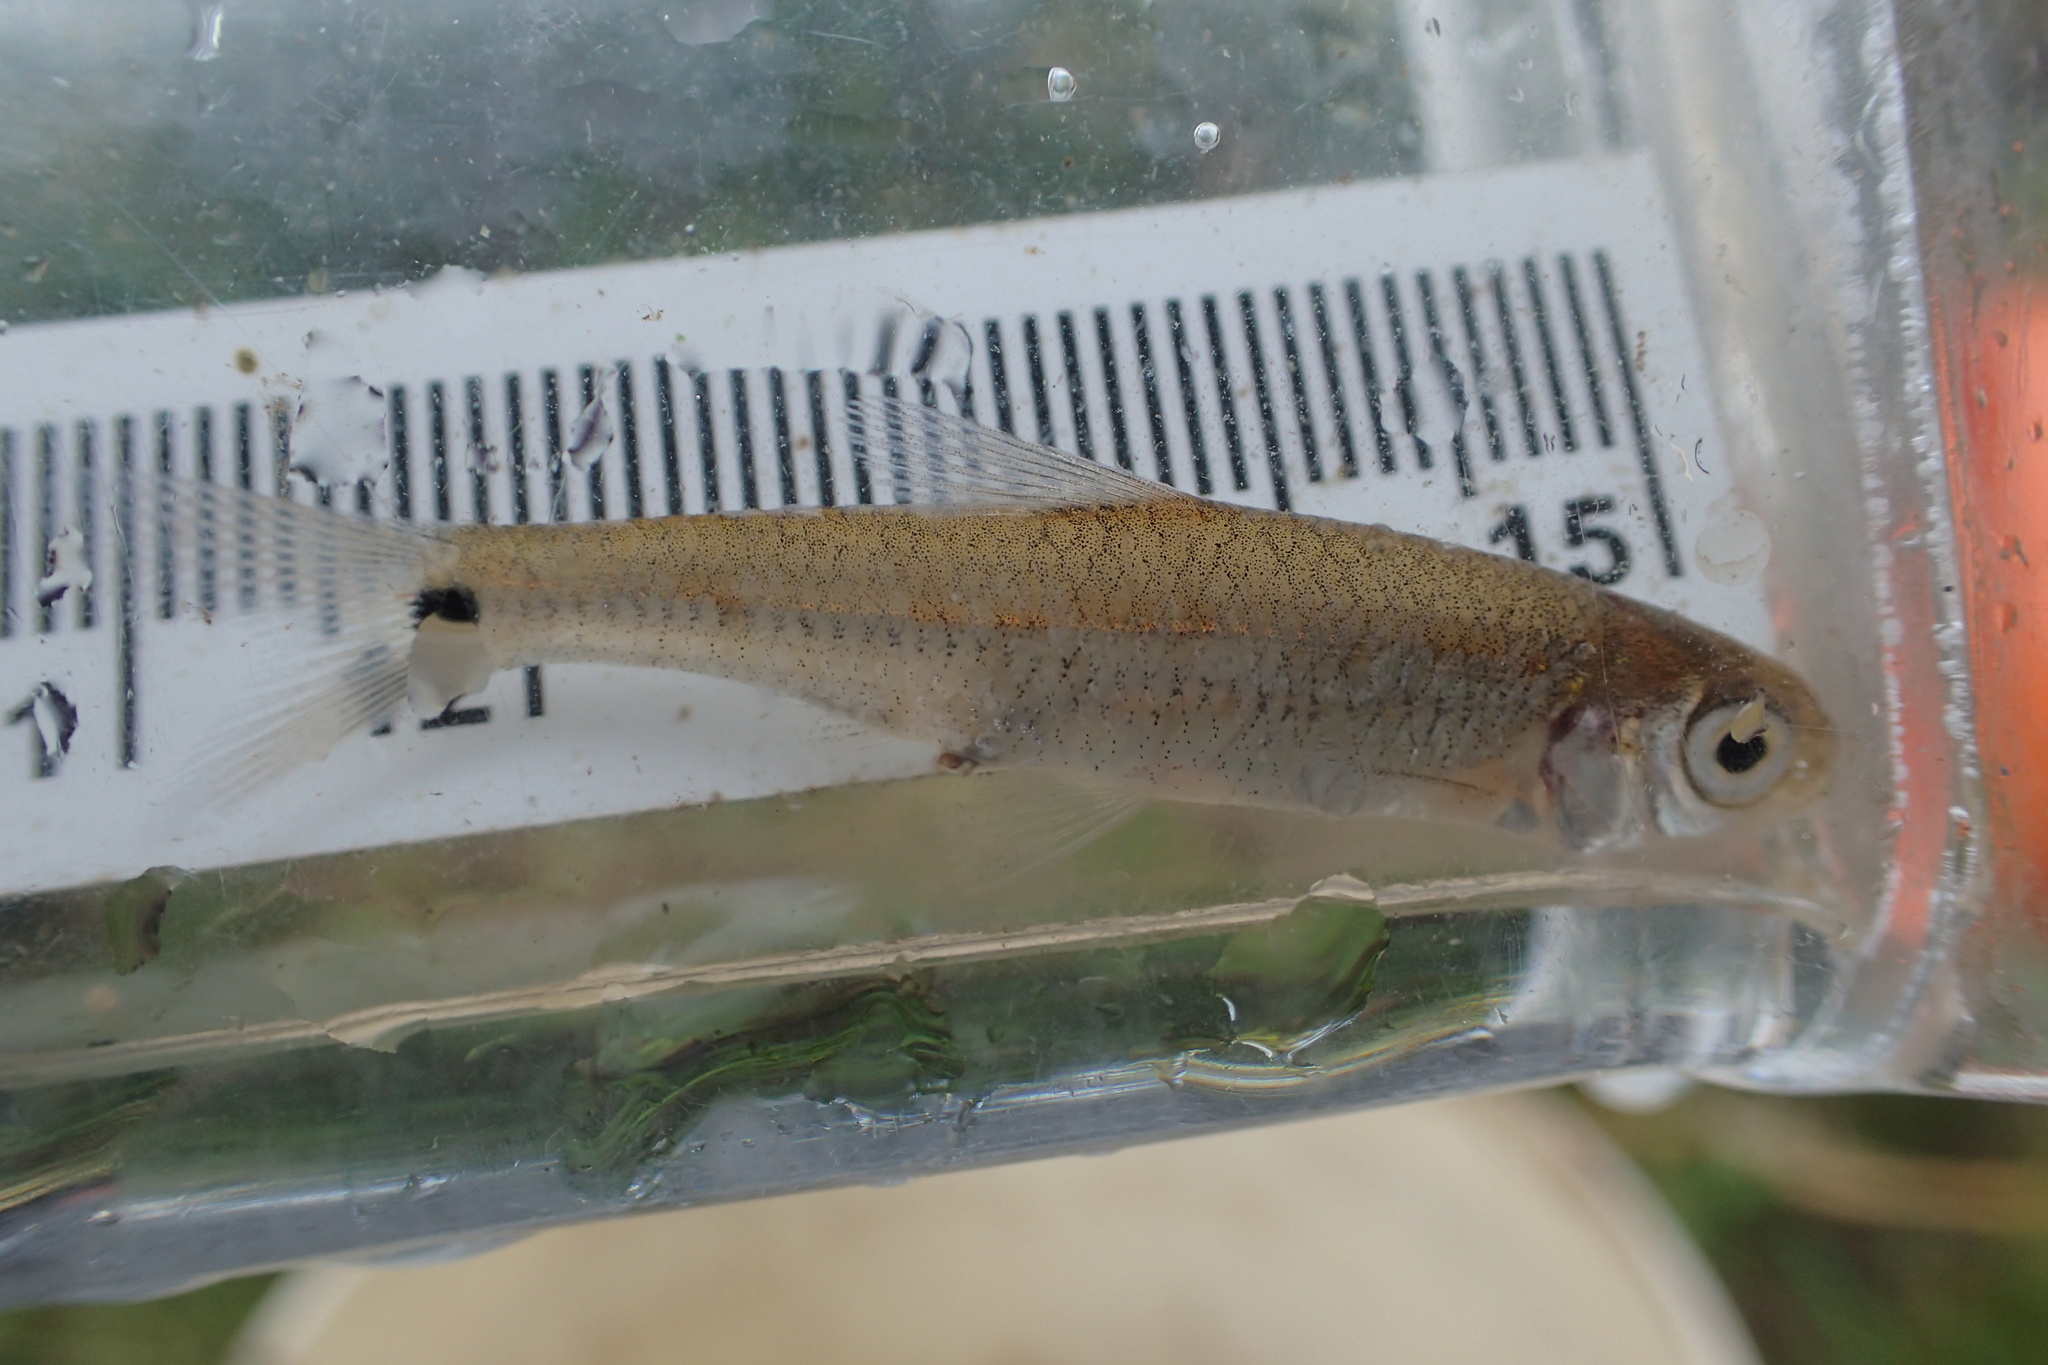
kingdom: Animalia
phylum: Chordata
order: Cypriniformes
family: Cyprinidae
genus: Notropis
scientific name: Notropis
